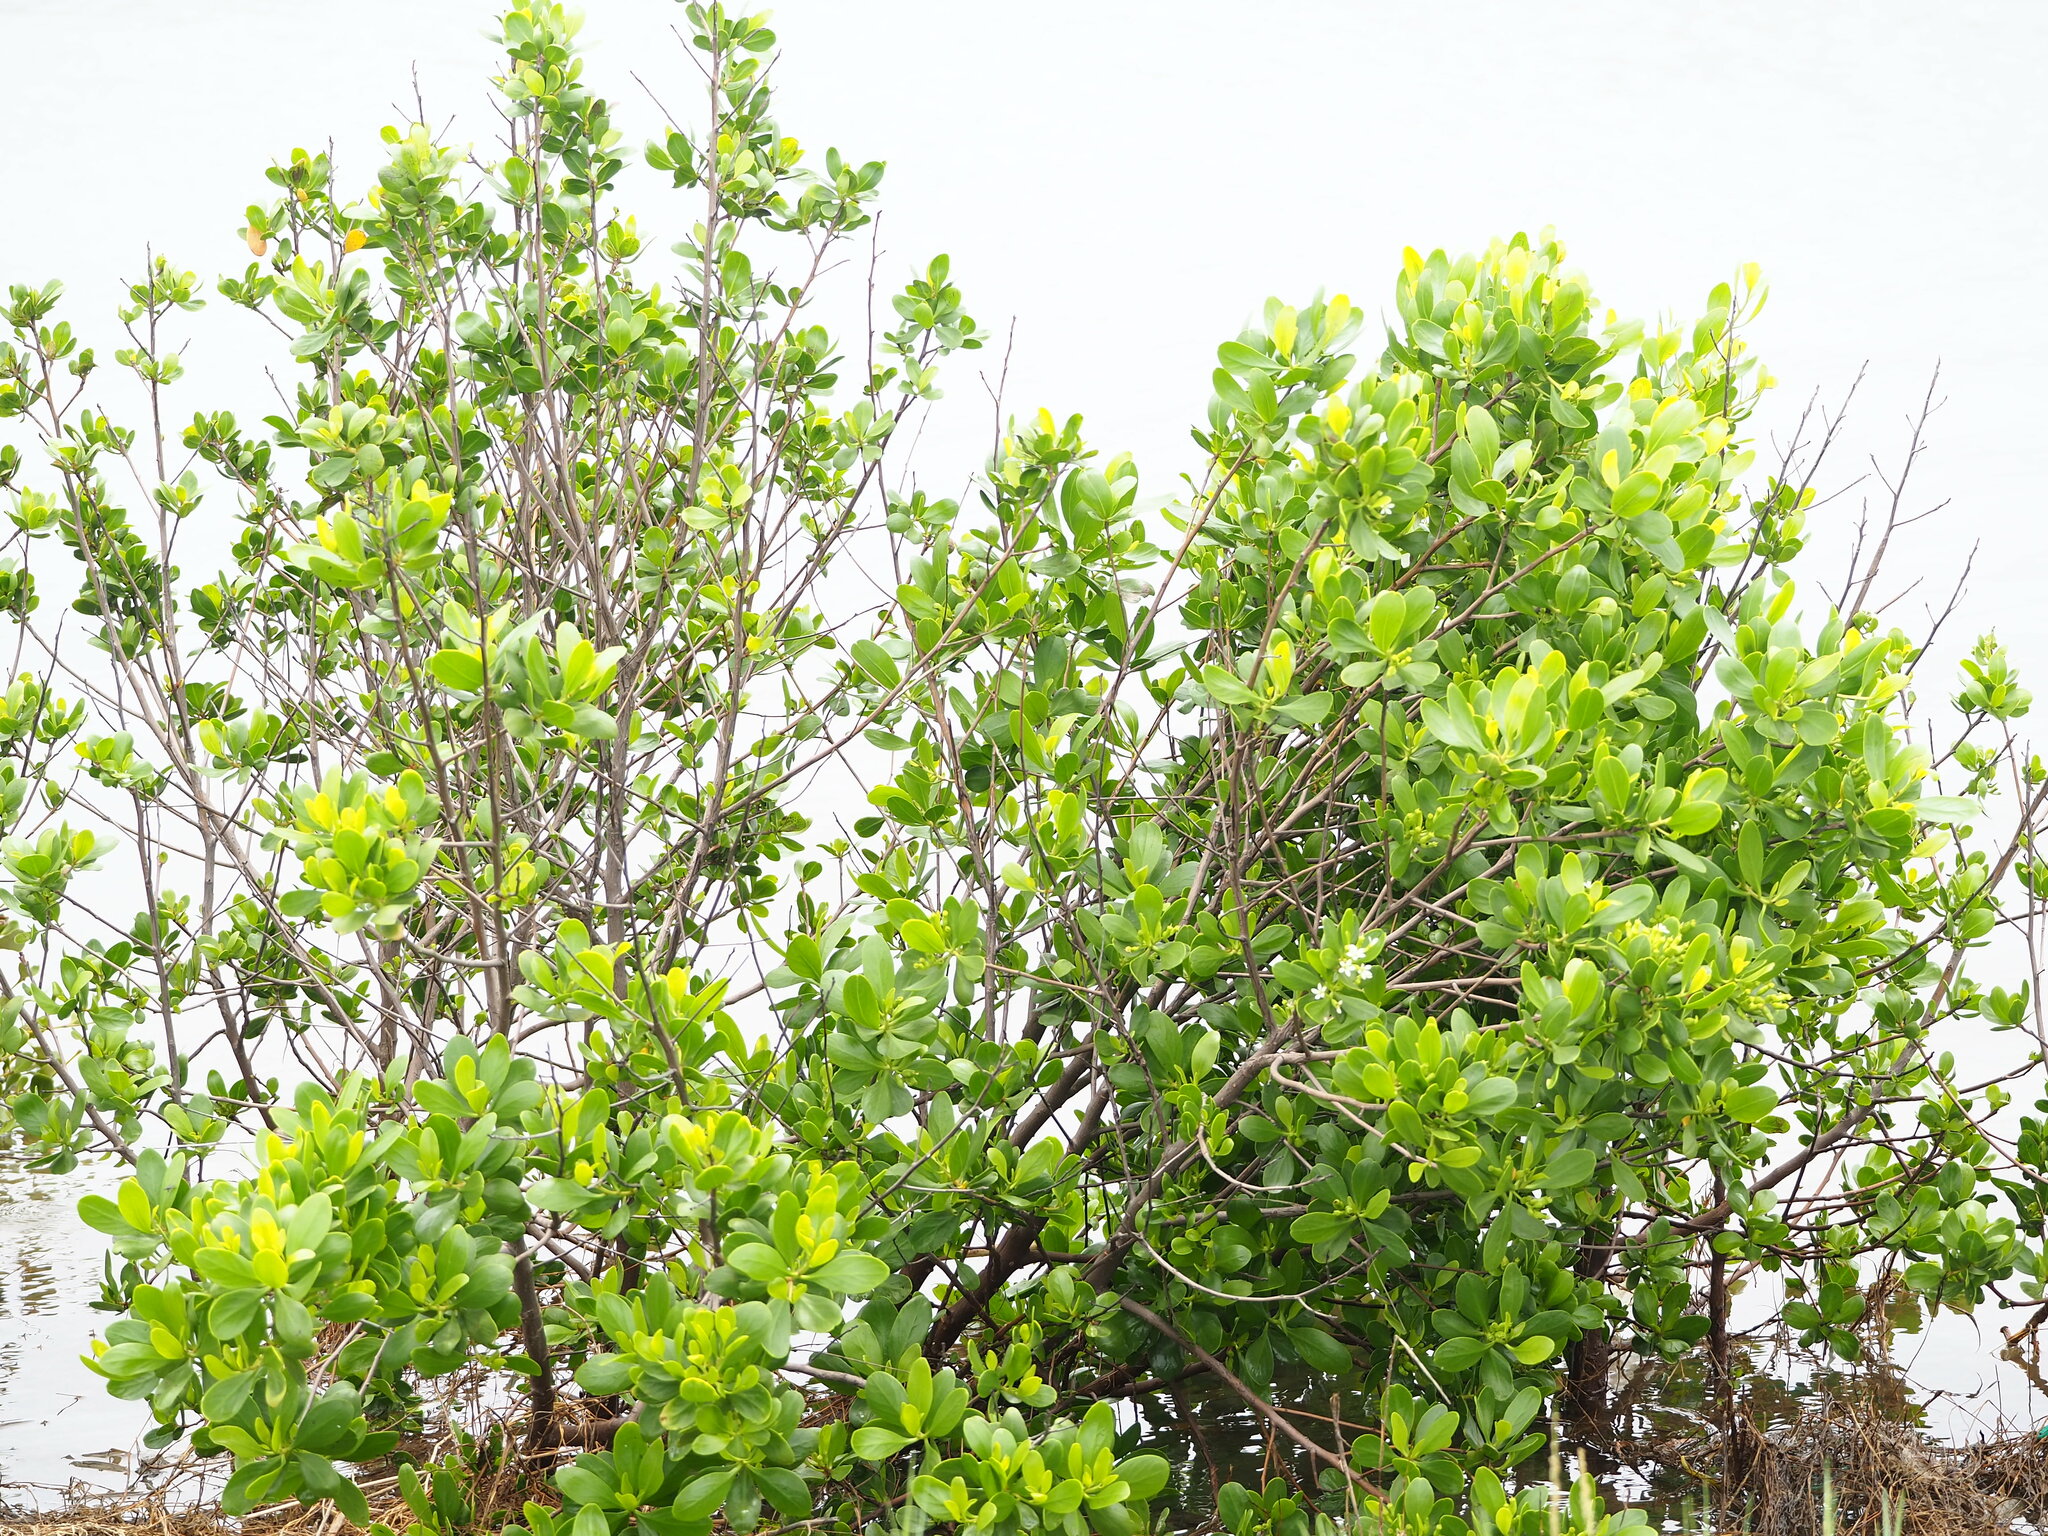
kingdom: Plantae
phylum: Tracheophyta
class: Magnoliopsida
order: Myrtales
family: Combretaceae
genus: Lumnitzera
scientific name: Lumnitzera racemosa
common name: White-flowered black mangrove
